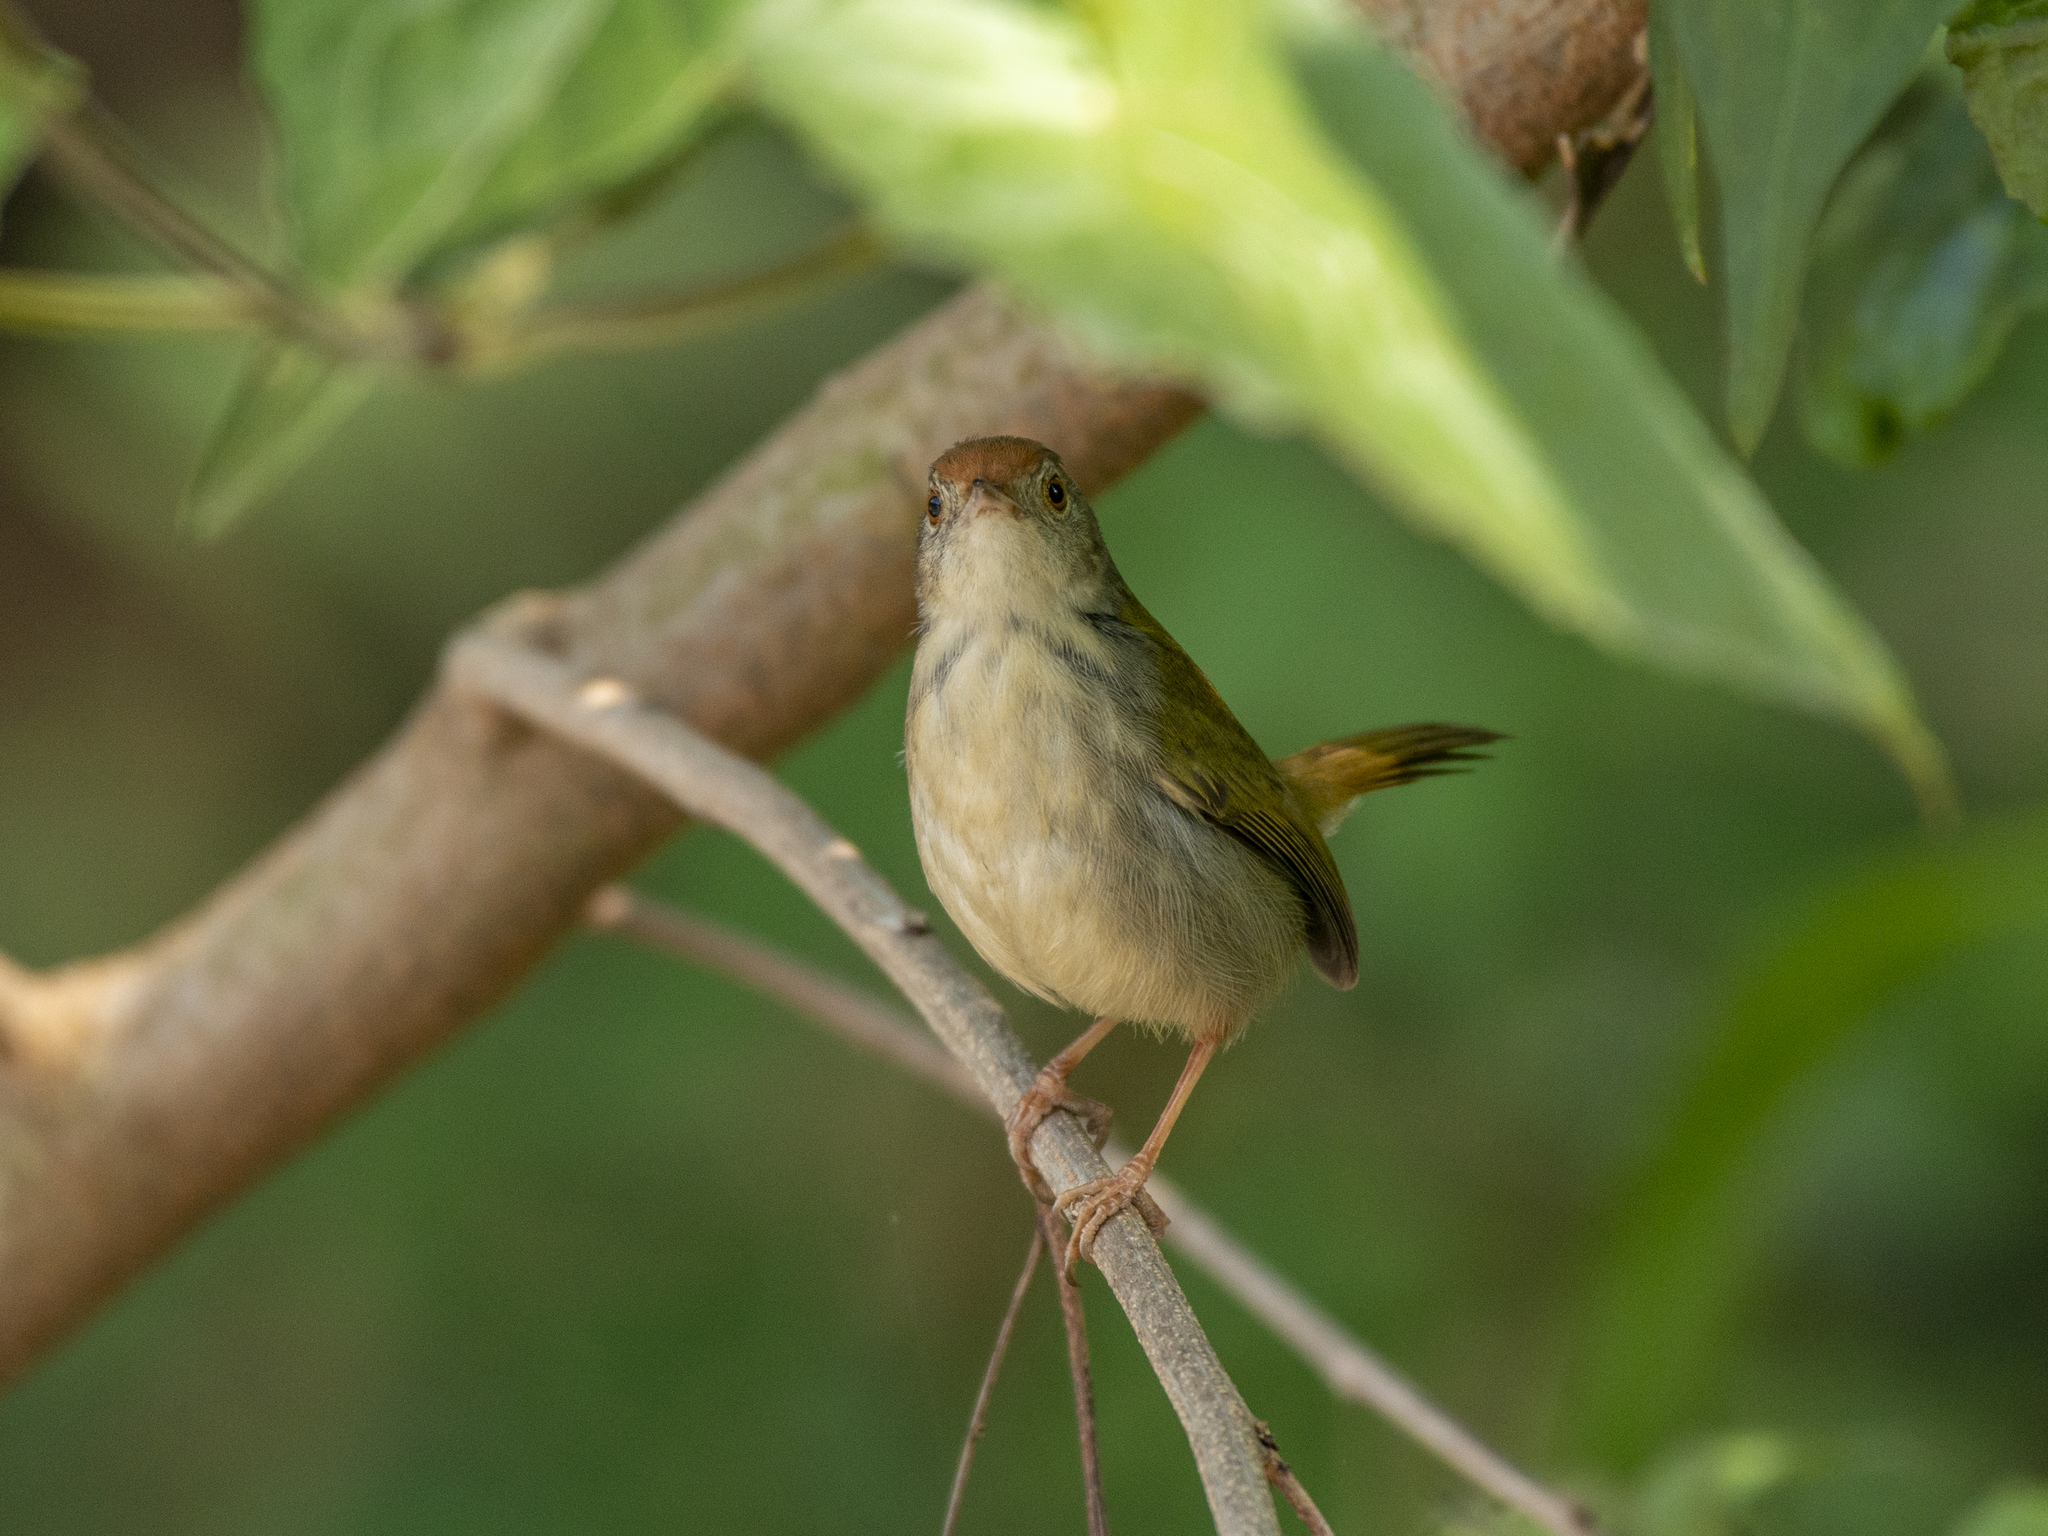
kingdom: Animalia
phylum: Chordata
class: Aves
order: Passeriformes
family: Cisticolidae
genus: Orthotomus
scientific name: Orthotomus sutorius
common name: Common tailorbird
